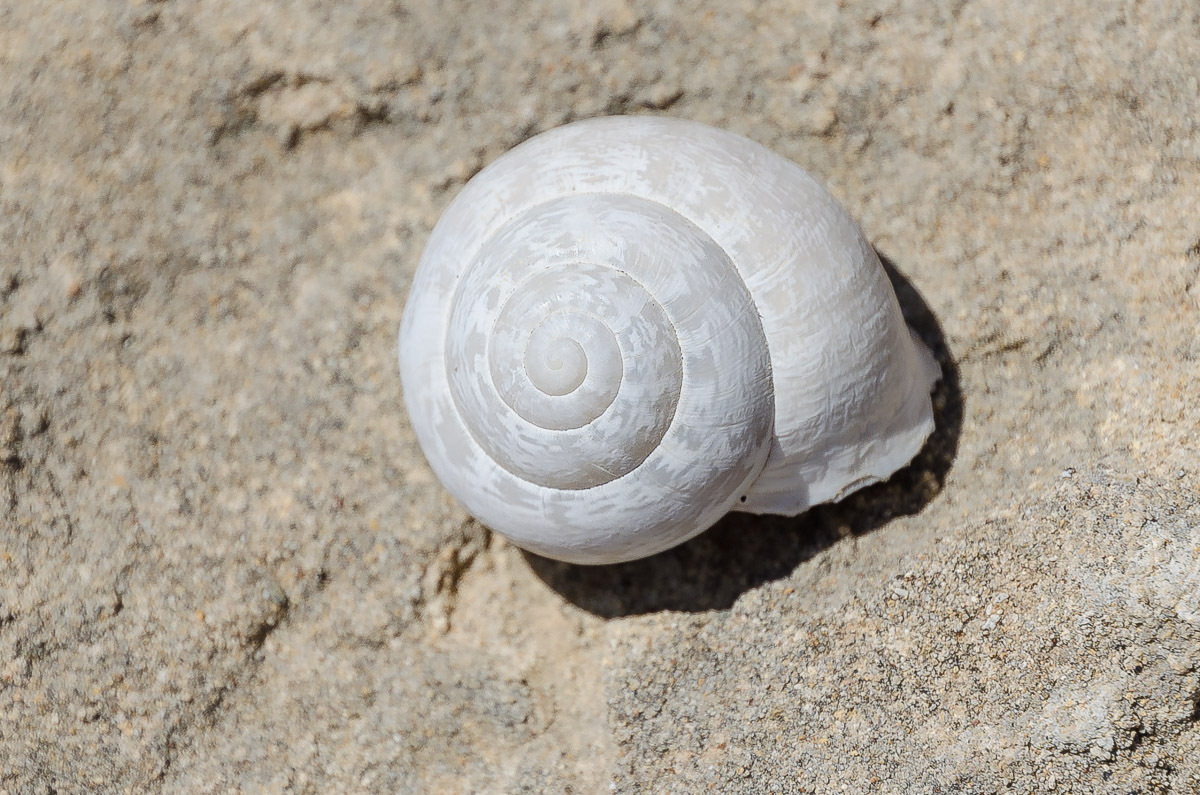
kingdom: Animalia
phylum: Mollusca
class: Gastropoda
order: Stylommatophora
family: Helicidae
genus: Eobania
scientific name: Eobania vermiculata
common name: Chocolateband snail
